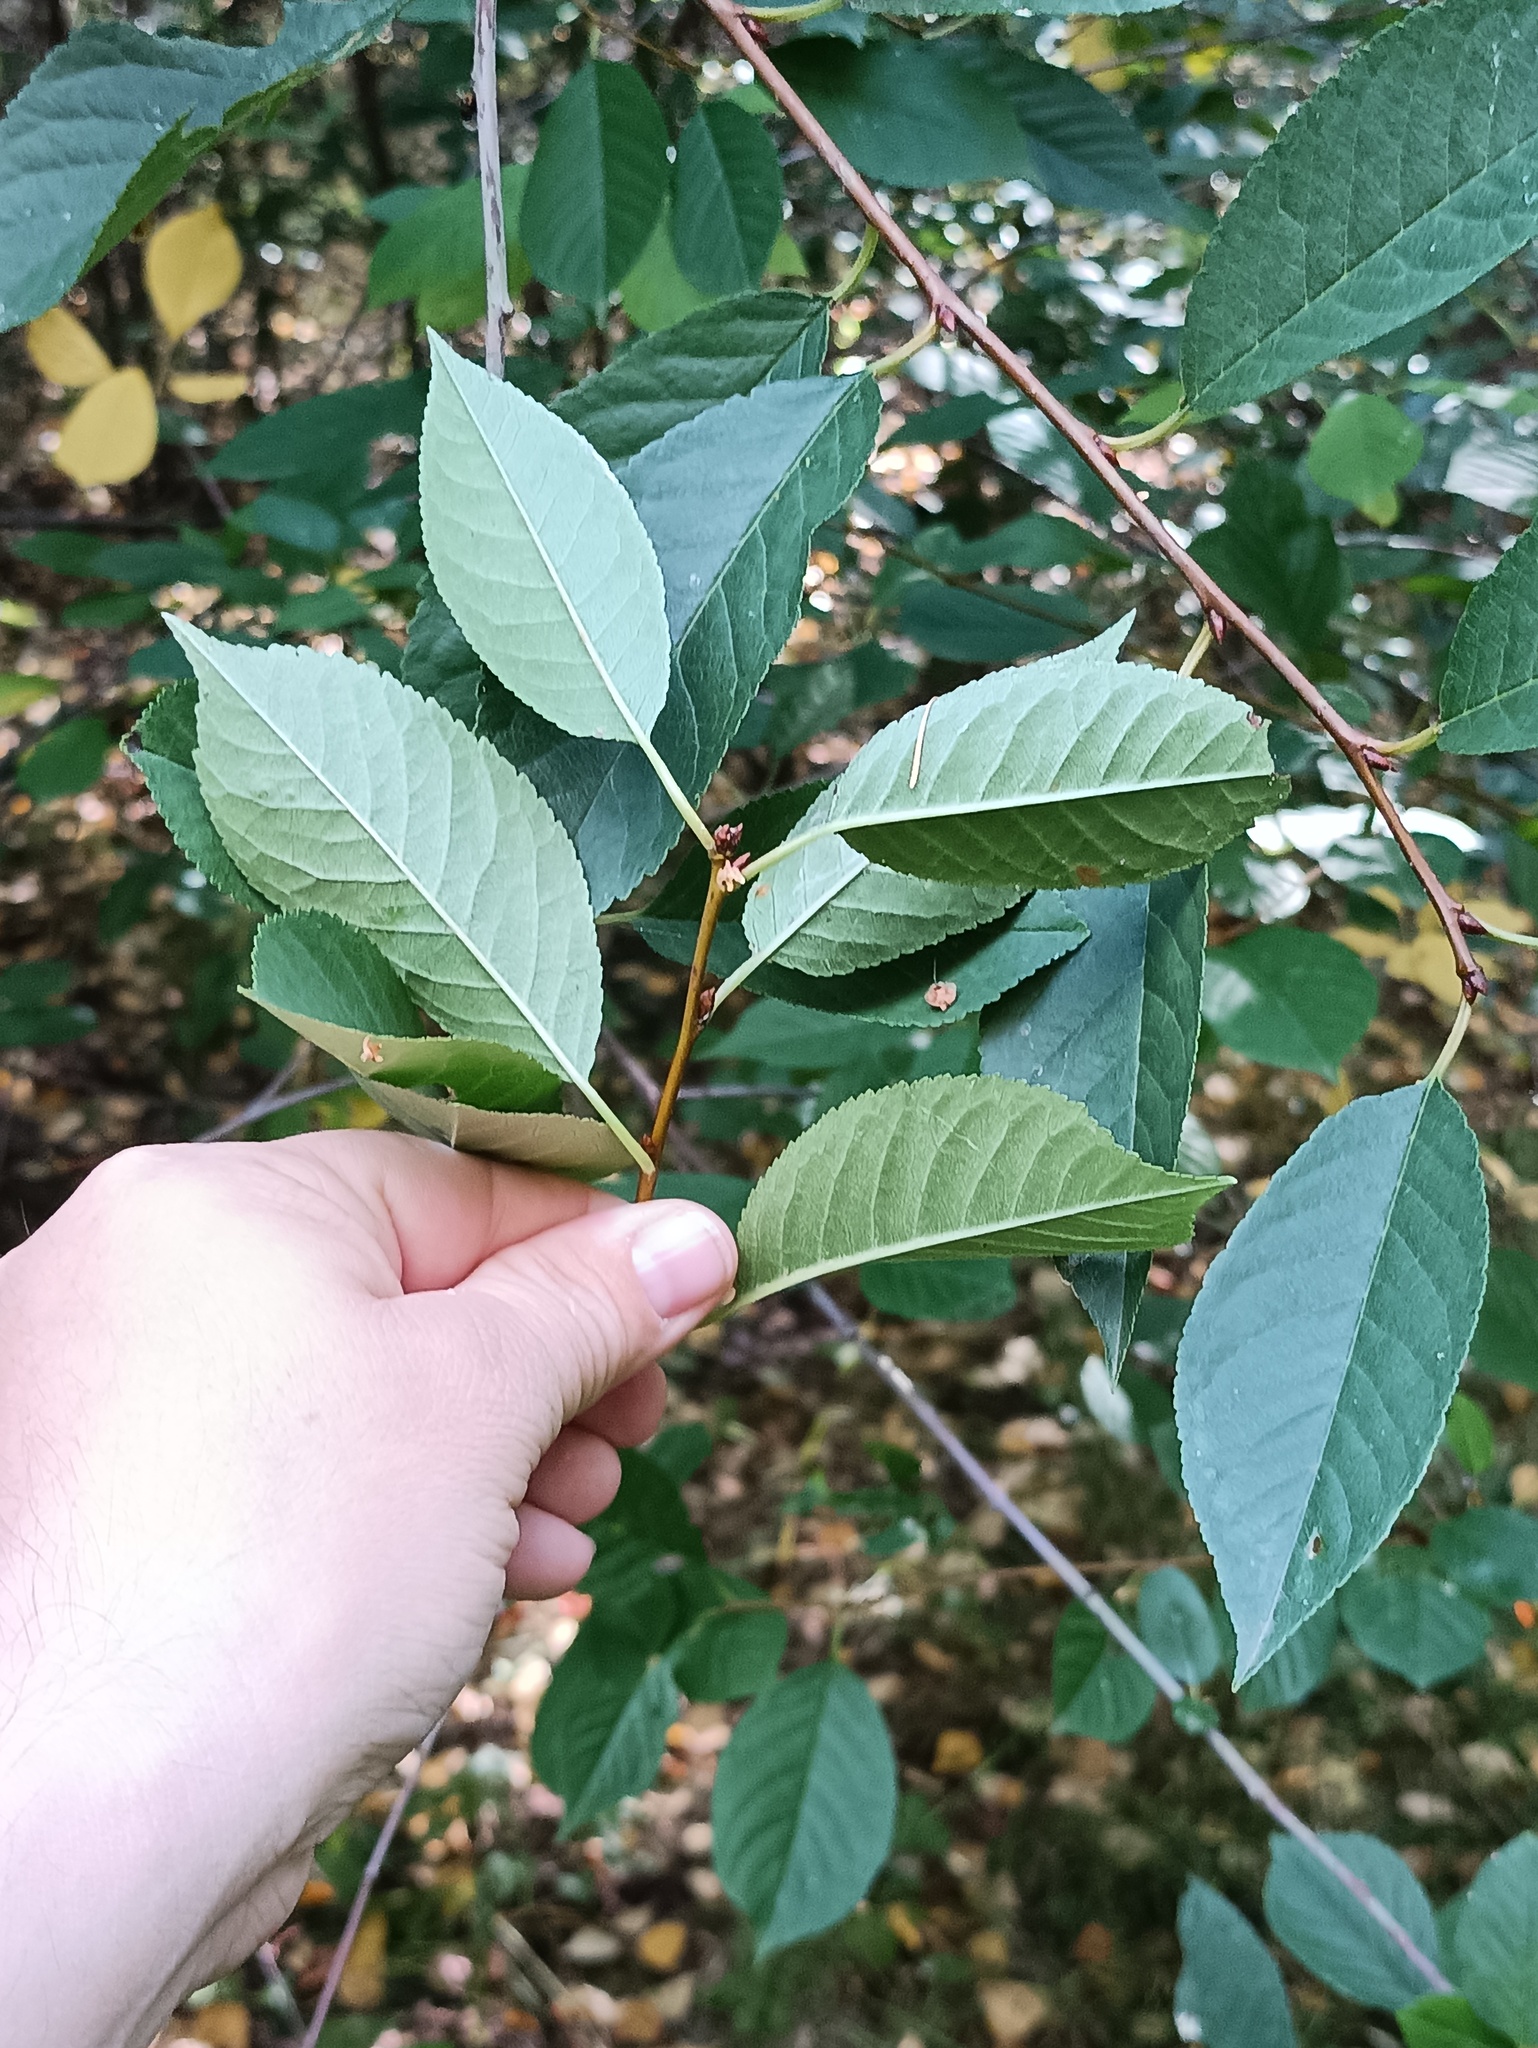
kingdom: Plantae
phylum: Tracheophyta
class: Magnoliopsida
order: Rosales
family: Rosaceae
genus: Prunus
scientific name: Prunus cerasus
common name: Morello cherry
